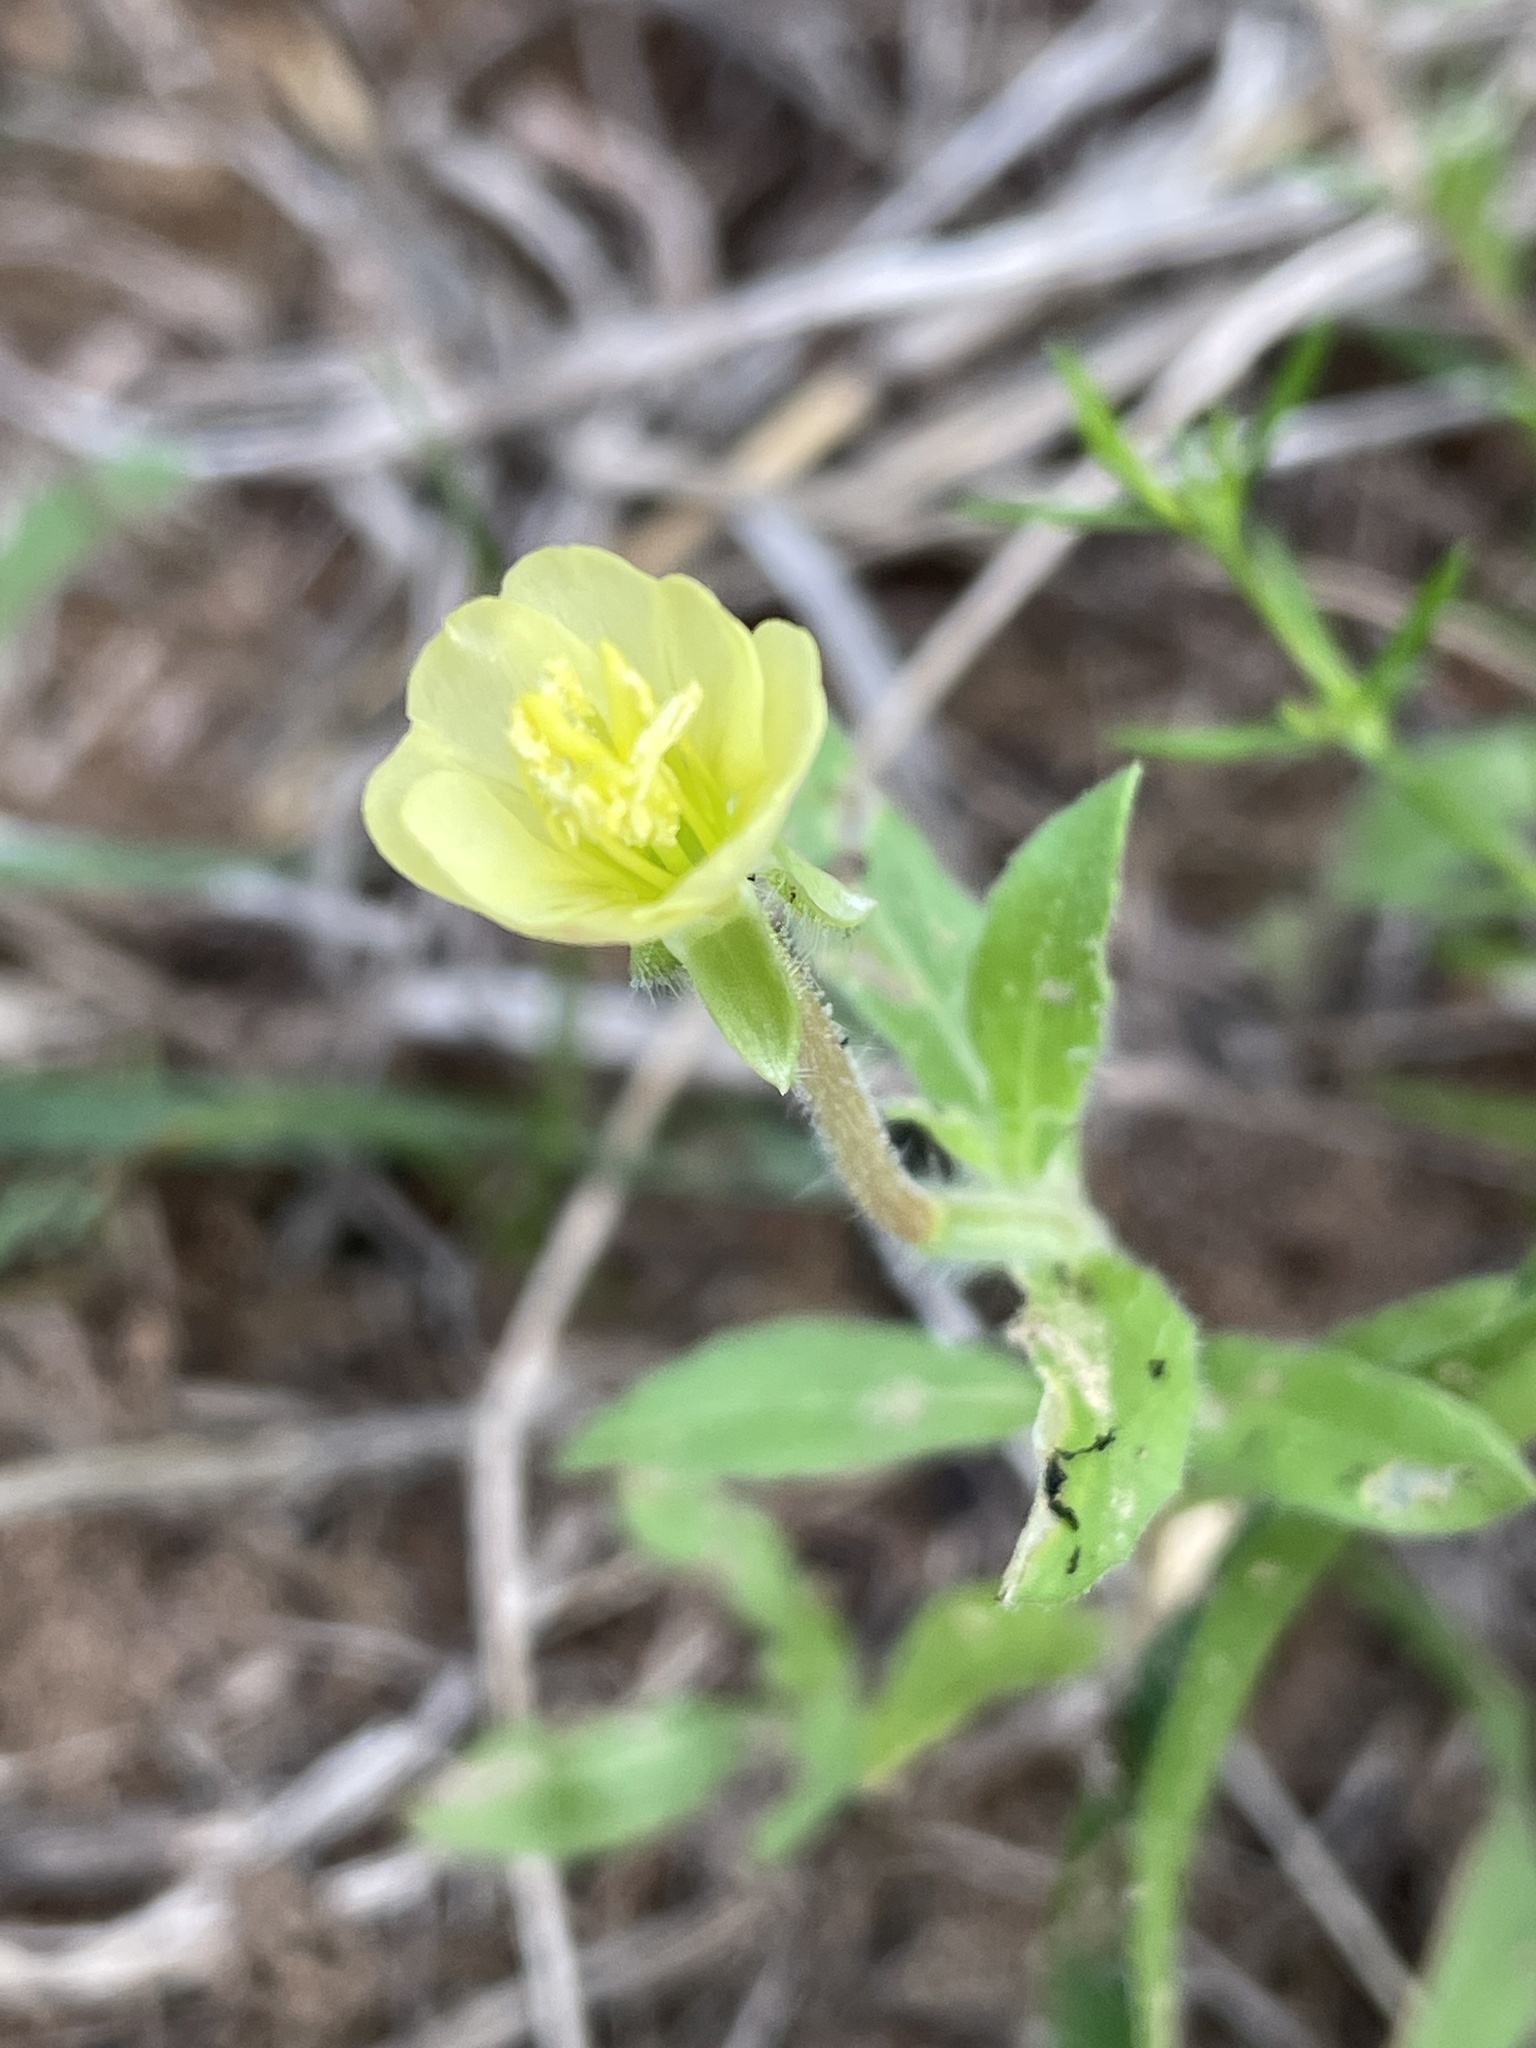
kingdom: Plantae
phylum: Tracheophyta
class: Magnoliopsida
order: Myrtales
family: Onagraceae
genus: Oenothera
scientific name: Oenothera laciniata
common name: Cut-leaved evening-primrose
